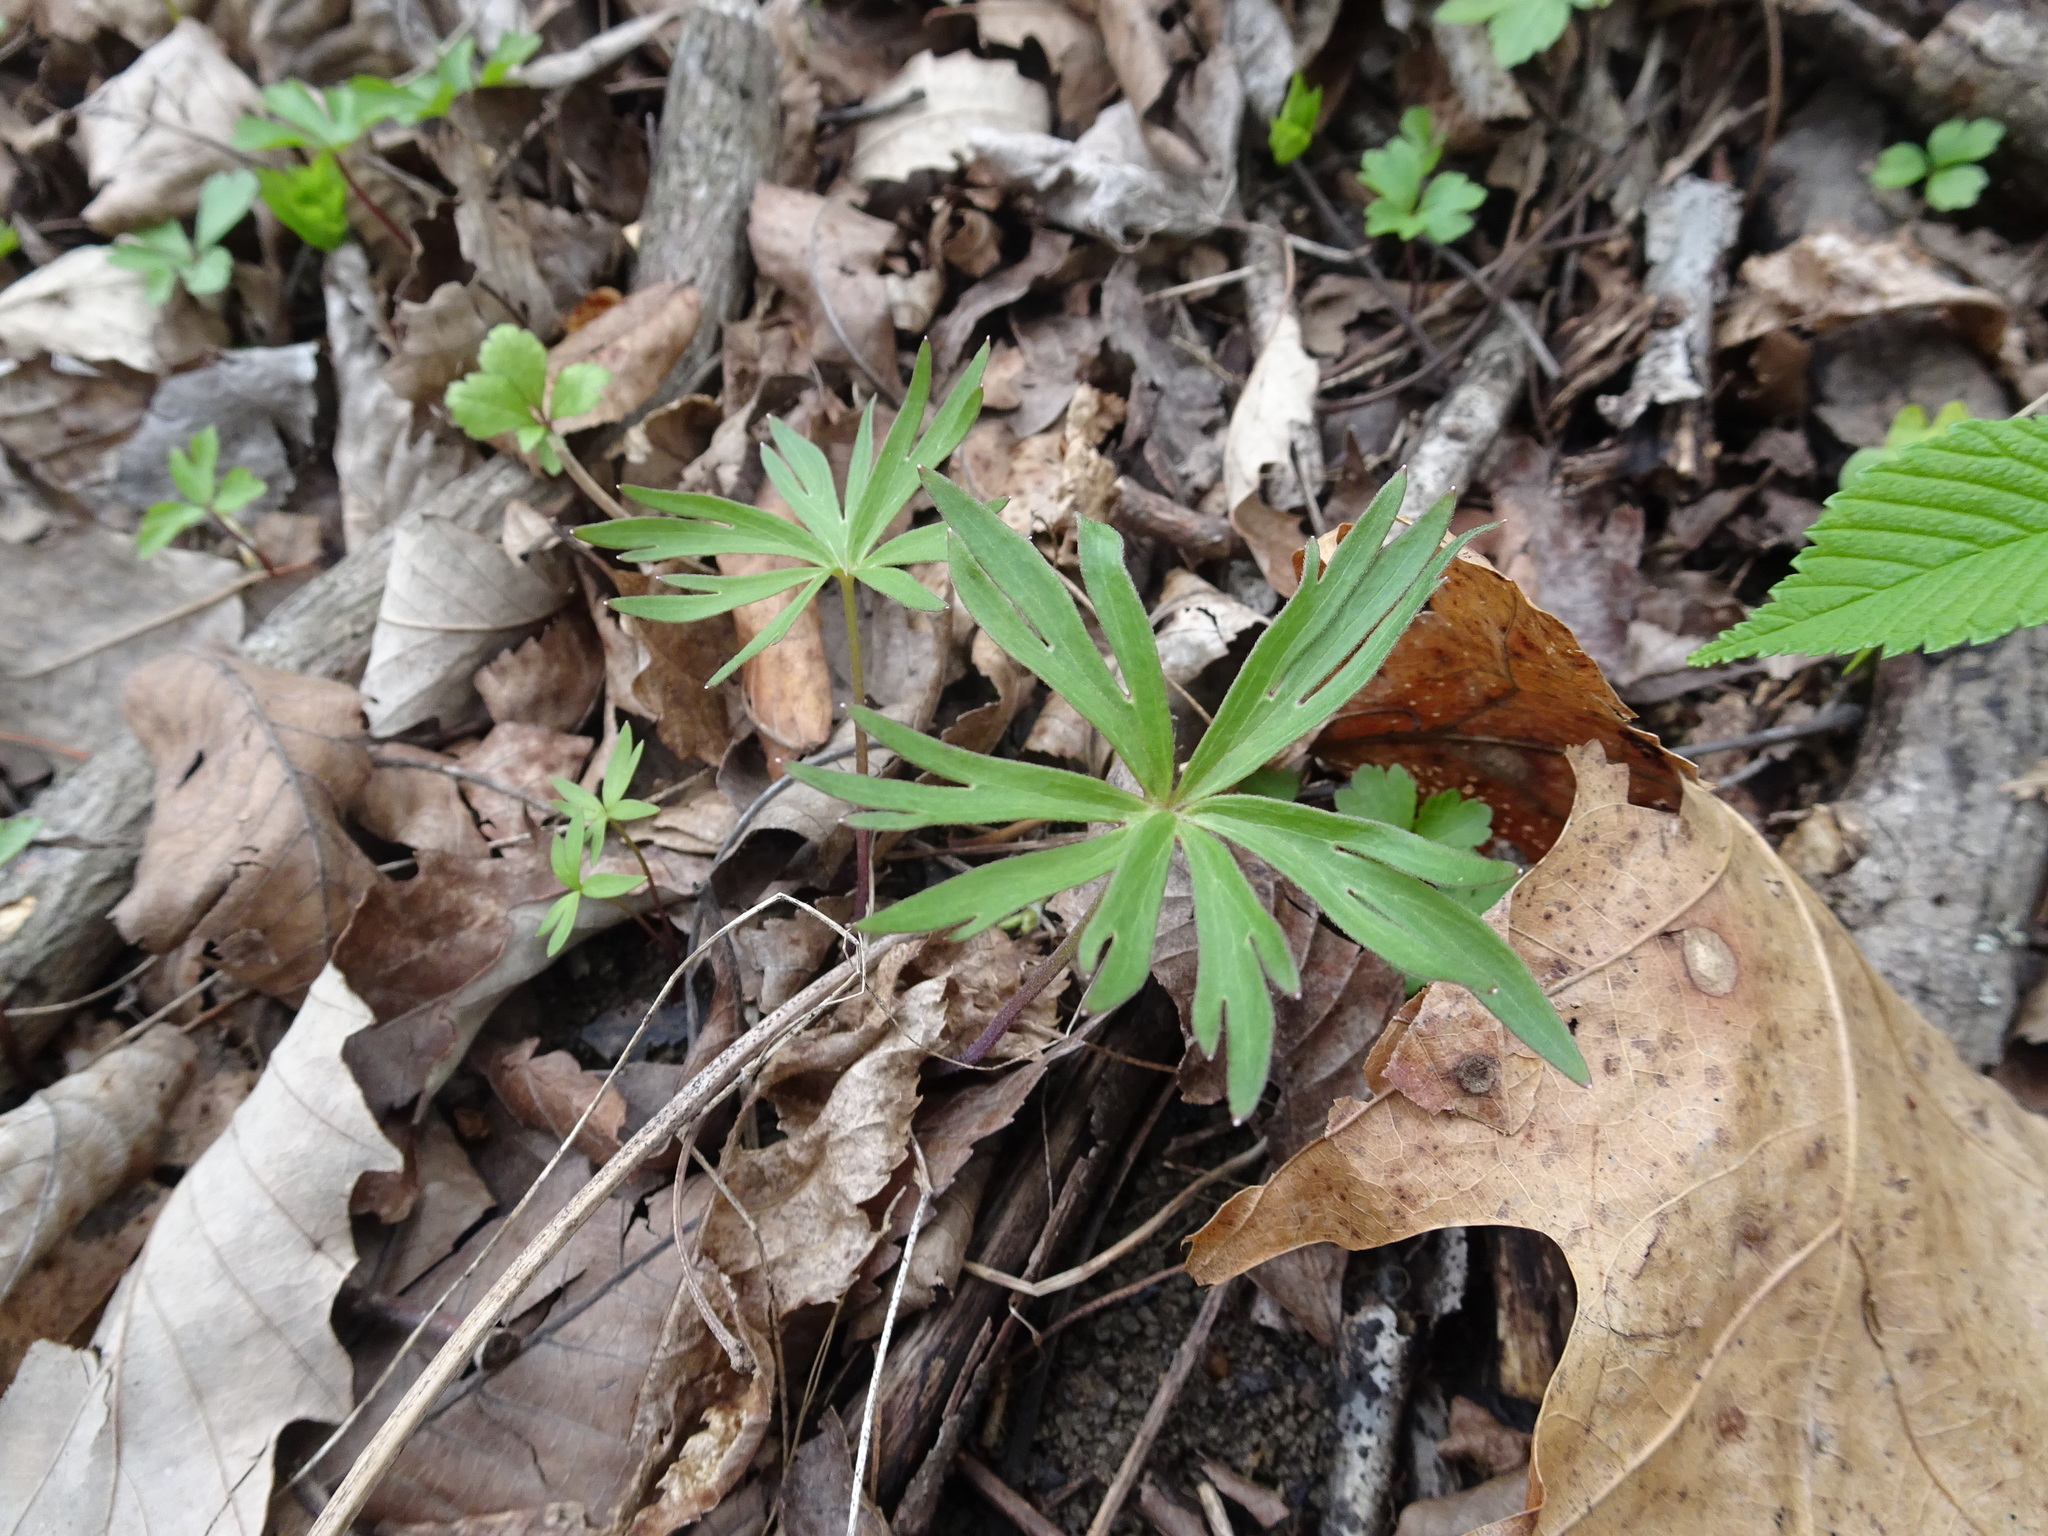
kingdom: Plantae
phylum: Tracheophyta
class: Magnoliopsida
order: Ranunculales
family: Ranunculaceae
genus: Delphinium
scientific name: Delphinium tricorne
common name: Dwarf larkspur
